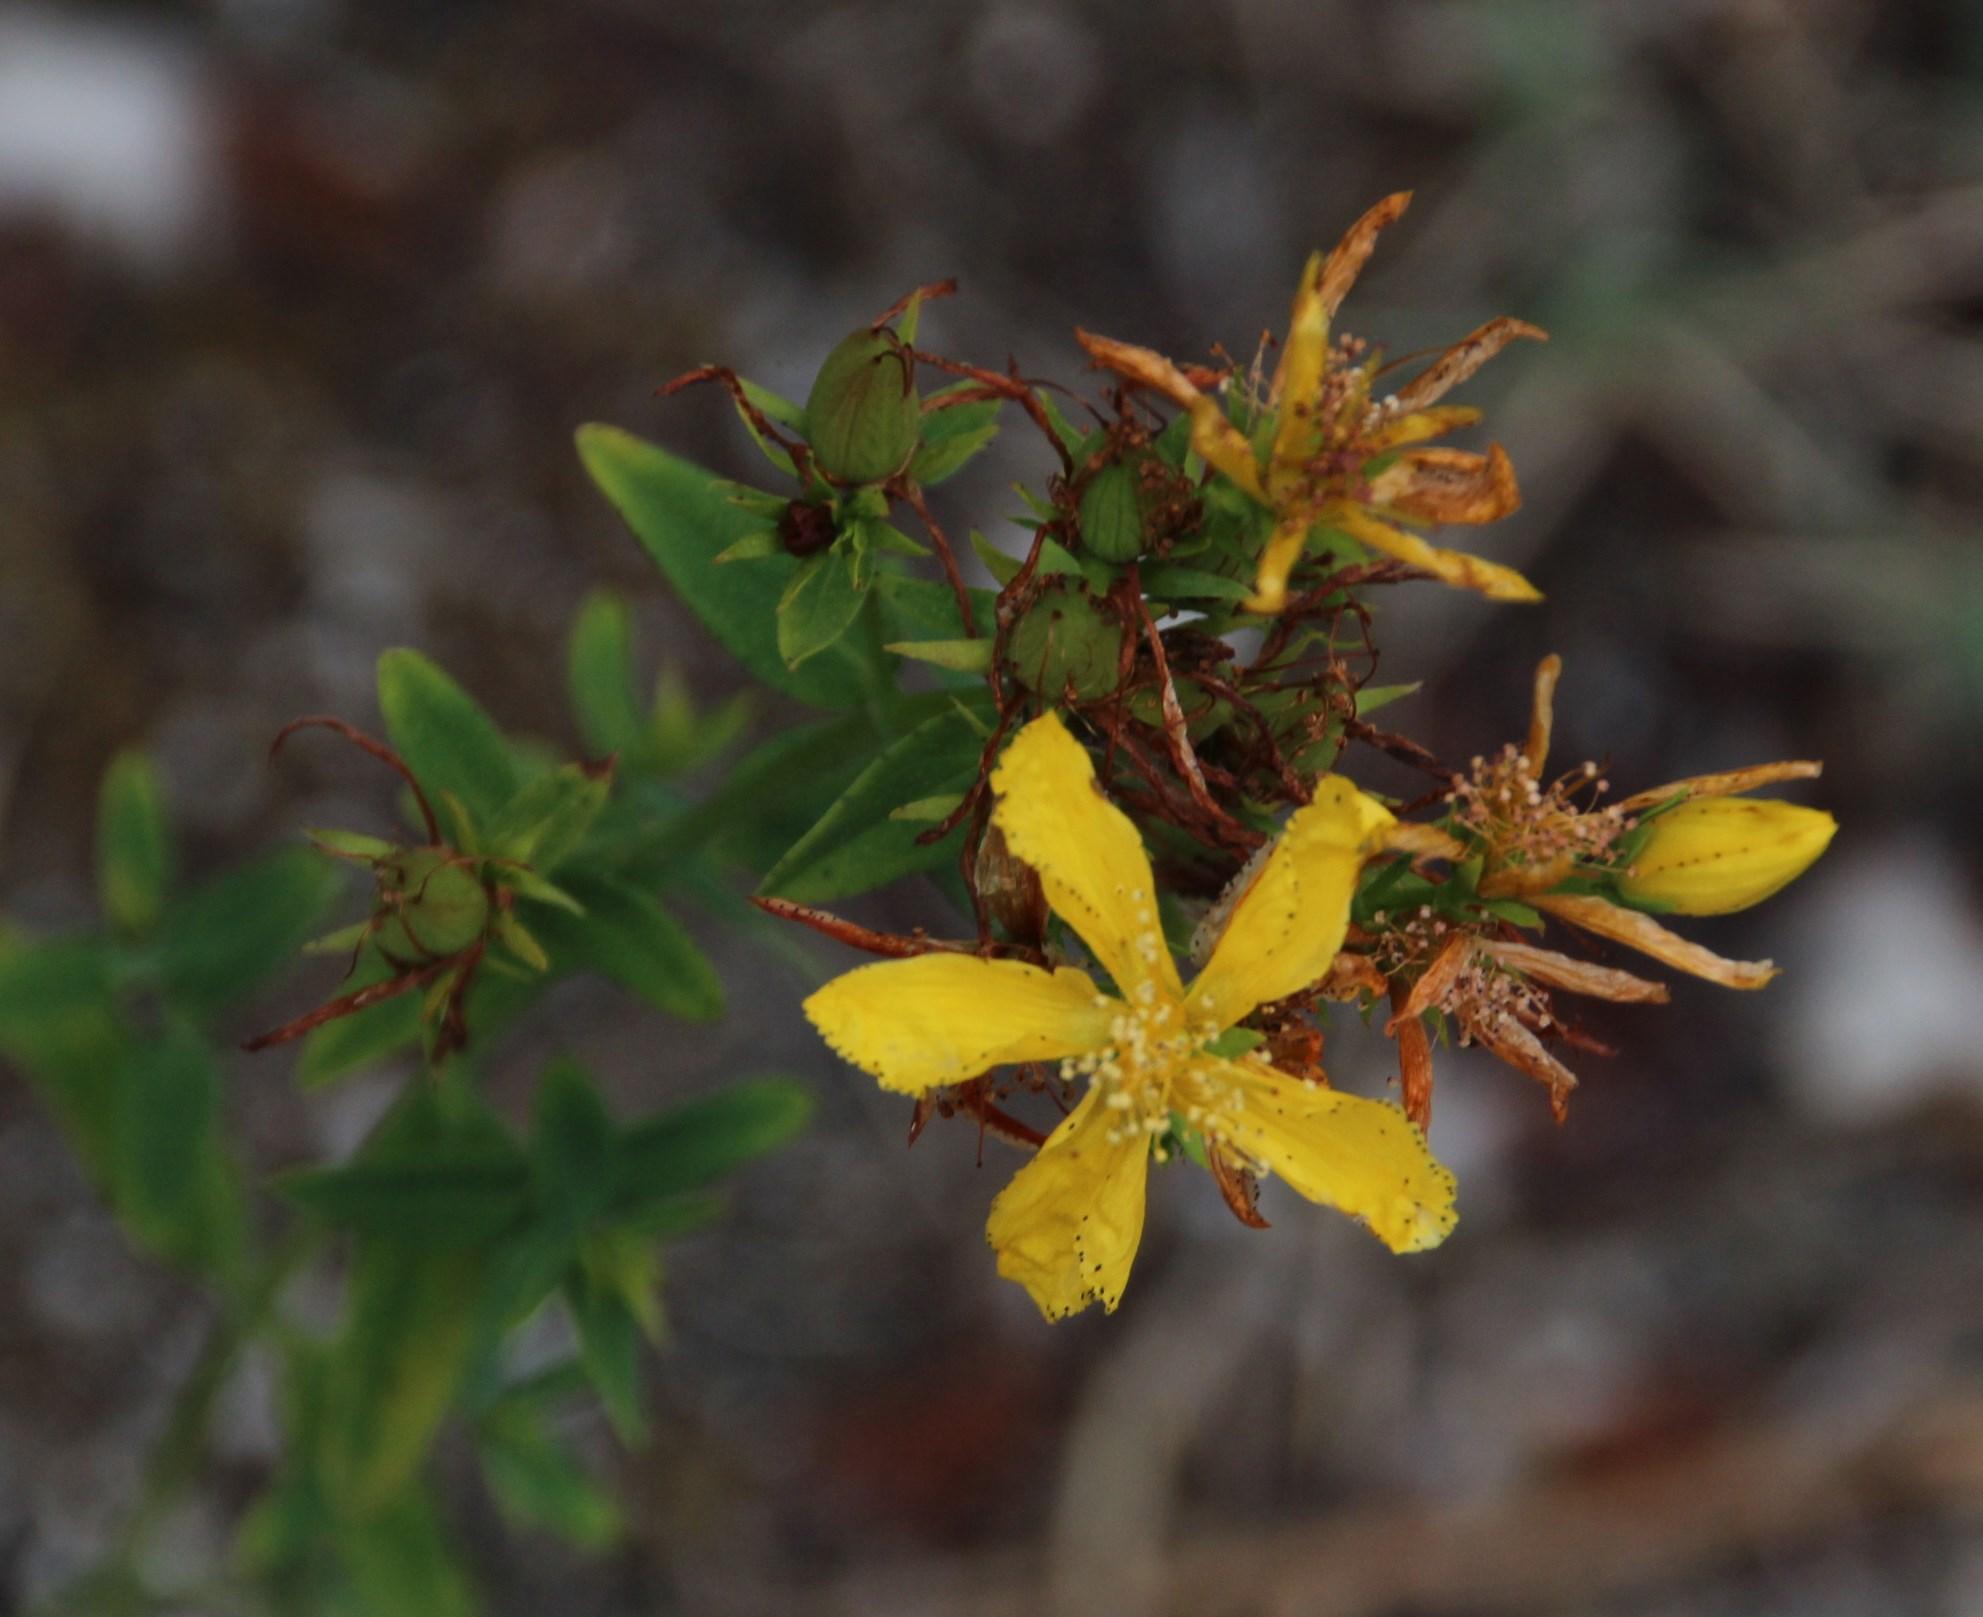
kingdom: Plantae
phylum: Tracheophyta
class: Magnoliopsida
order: Malpighiales
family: Hypericaceae
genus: Hypericum
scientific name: Hypericum perforatum
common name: Common st. johnswort
